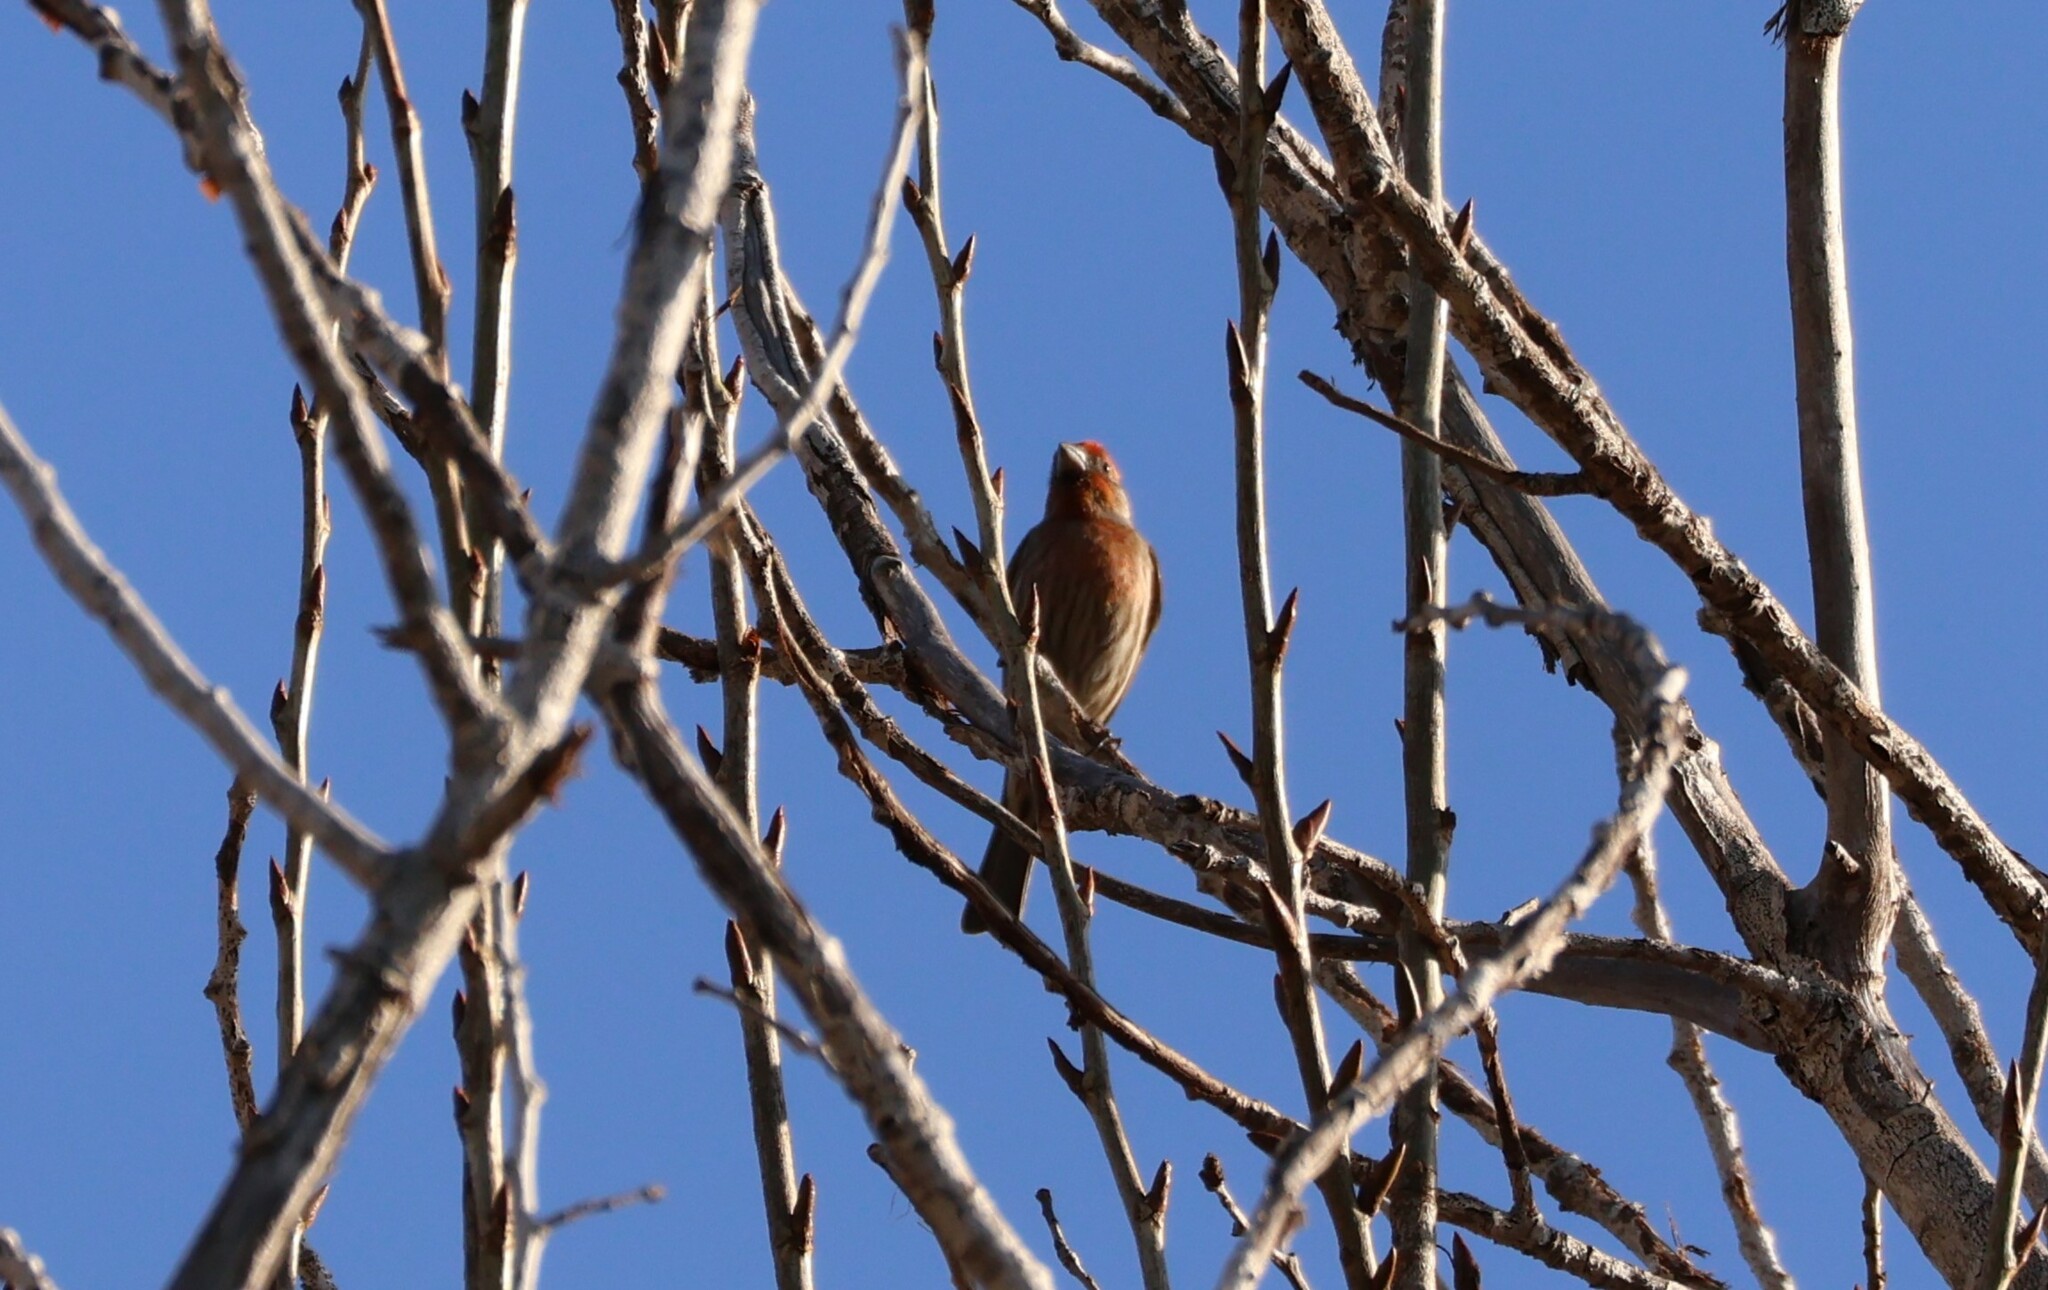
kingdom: Animalia
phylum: Chordata
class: Aves
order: Passeriformes
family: Fringillidae
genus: Haemorhous
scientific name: Haemorhous mexicanus
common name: House finch
